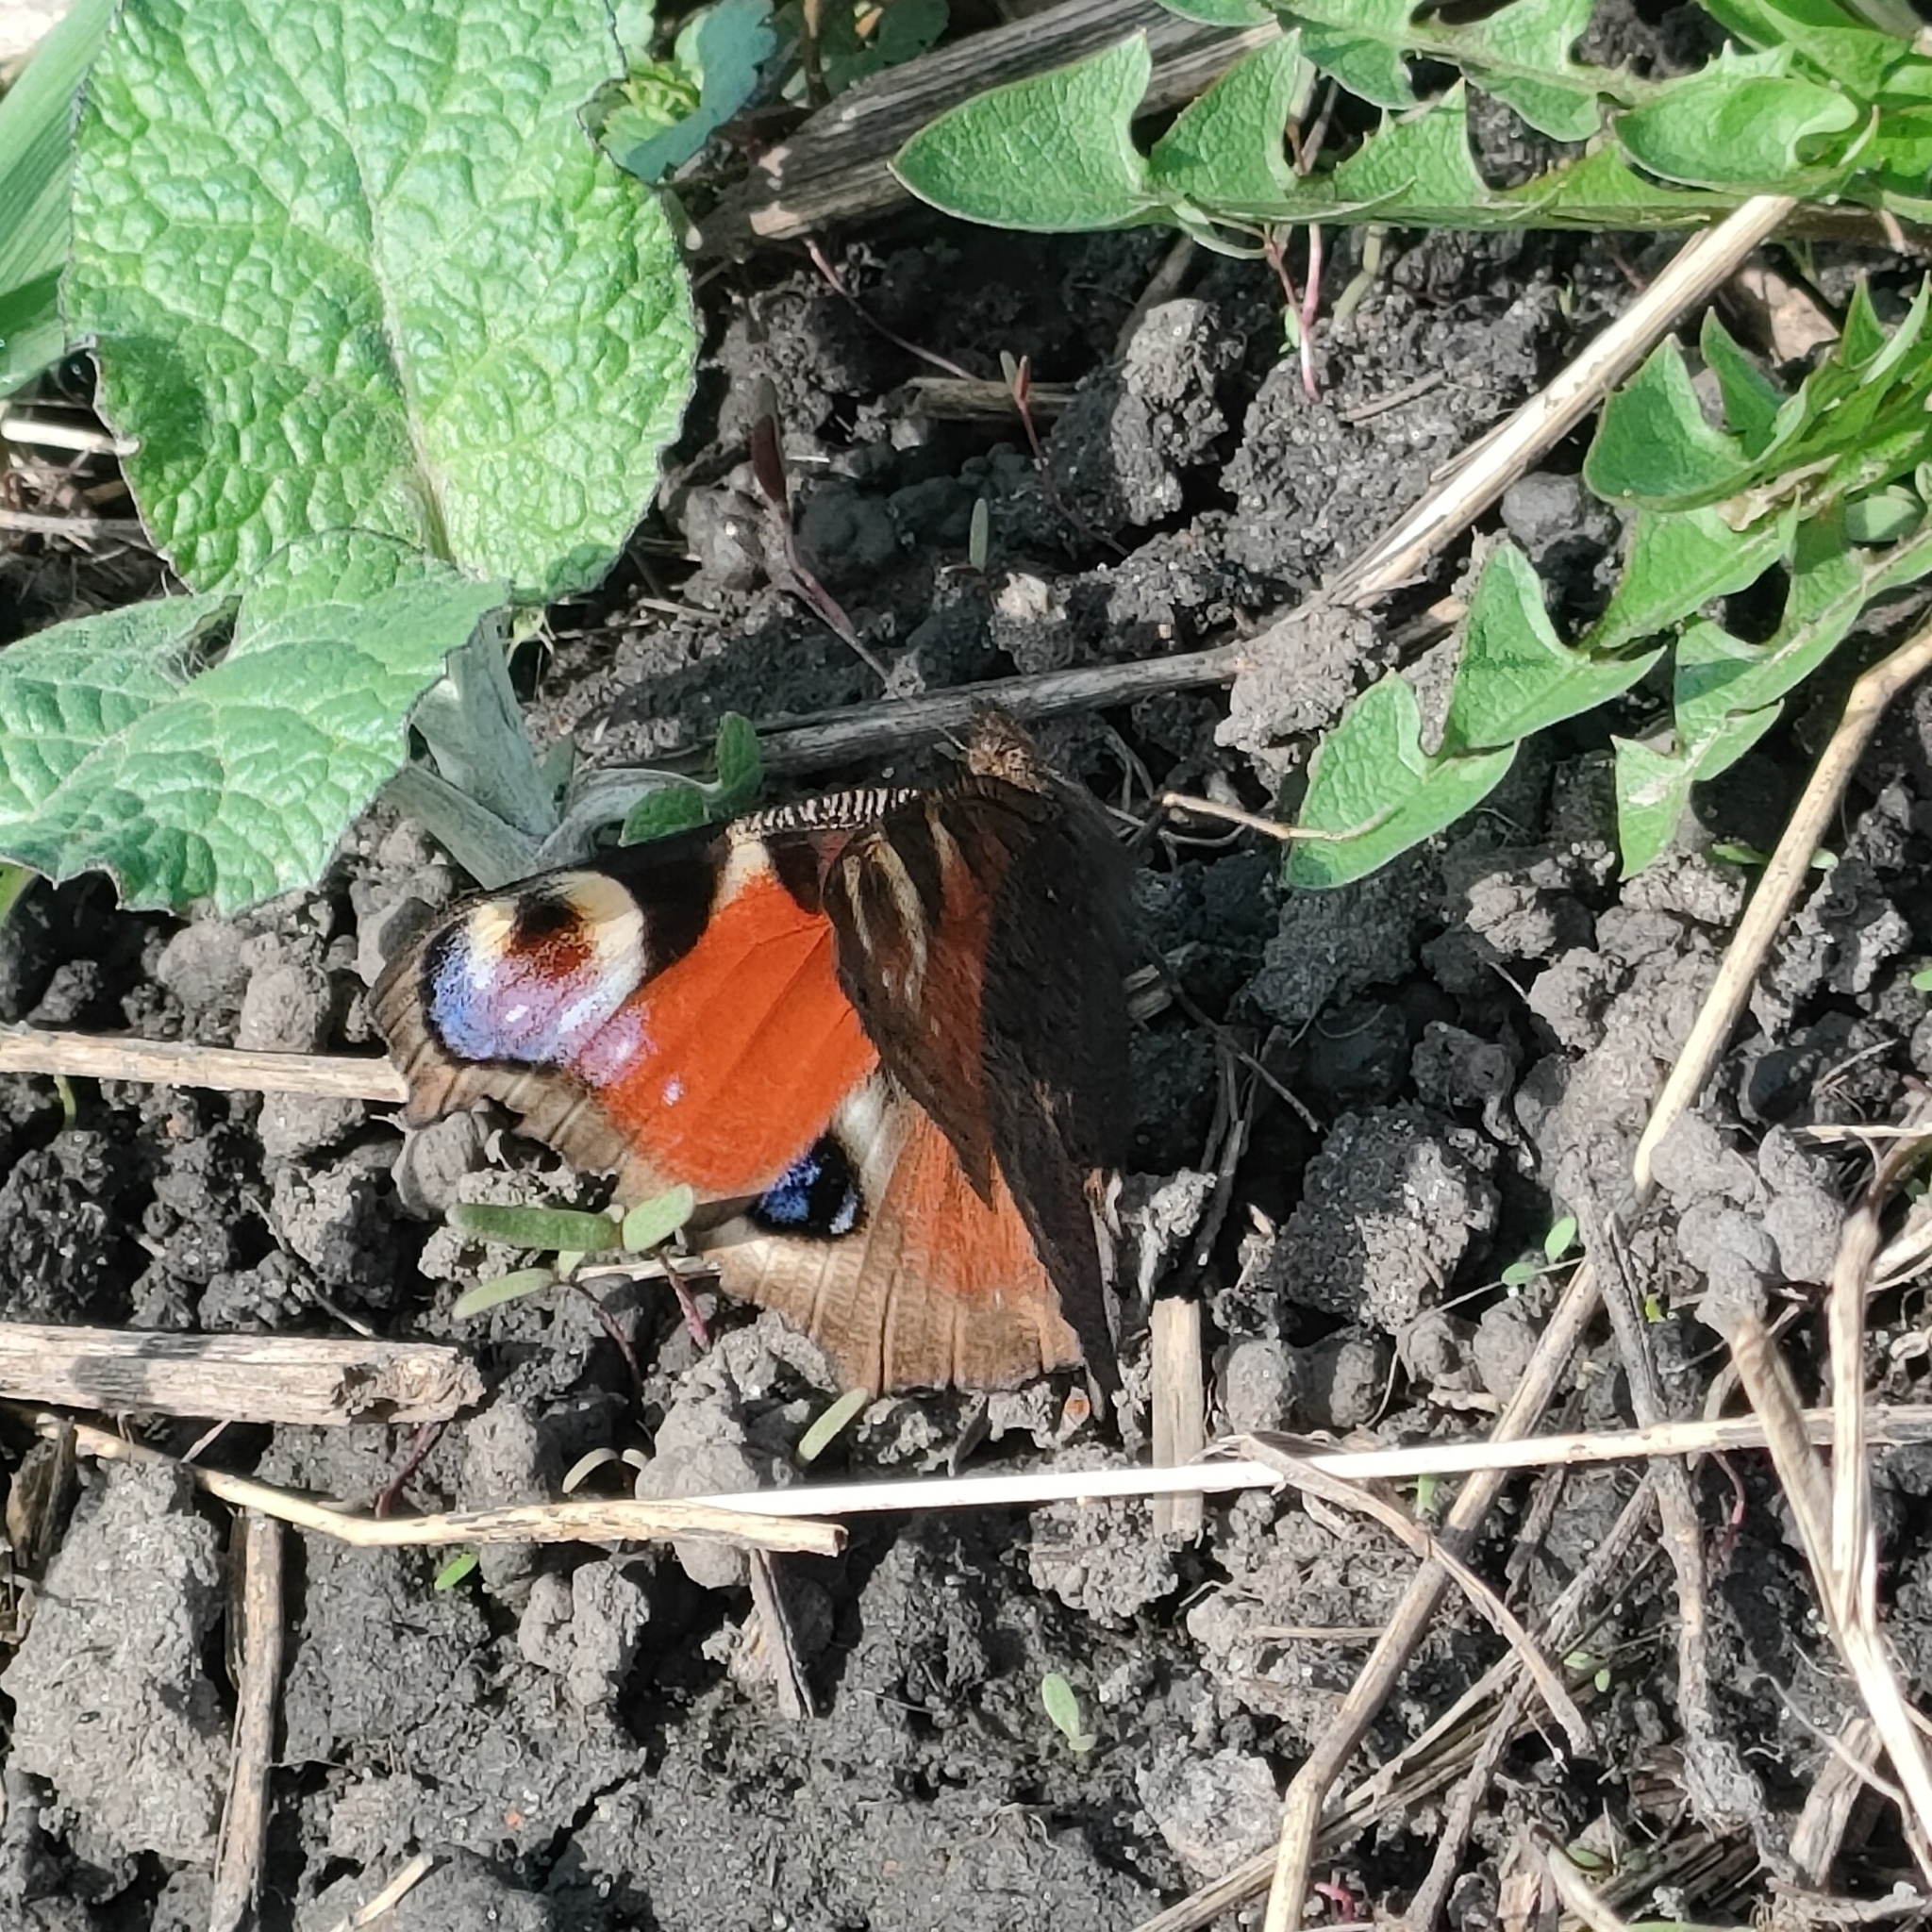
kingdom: Animalia
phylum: Arthropoda
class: Insecta
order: Lepidoptera
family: Nymphalidae
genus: Aglais
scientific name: Aglais io
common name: Peacock
